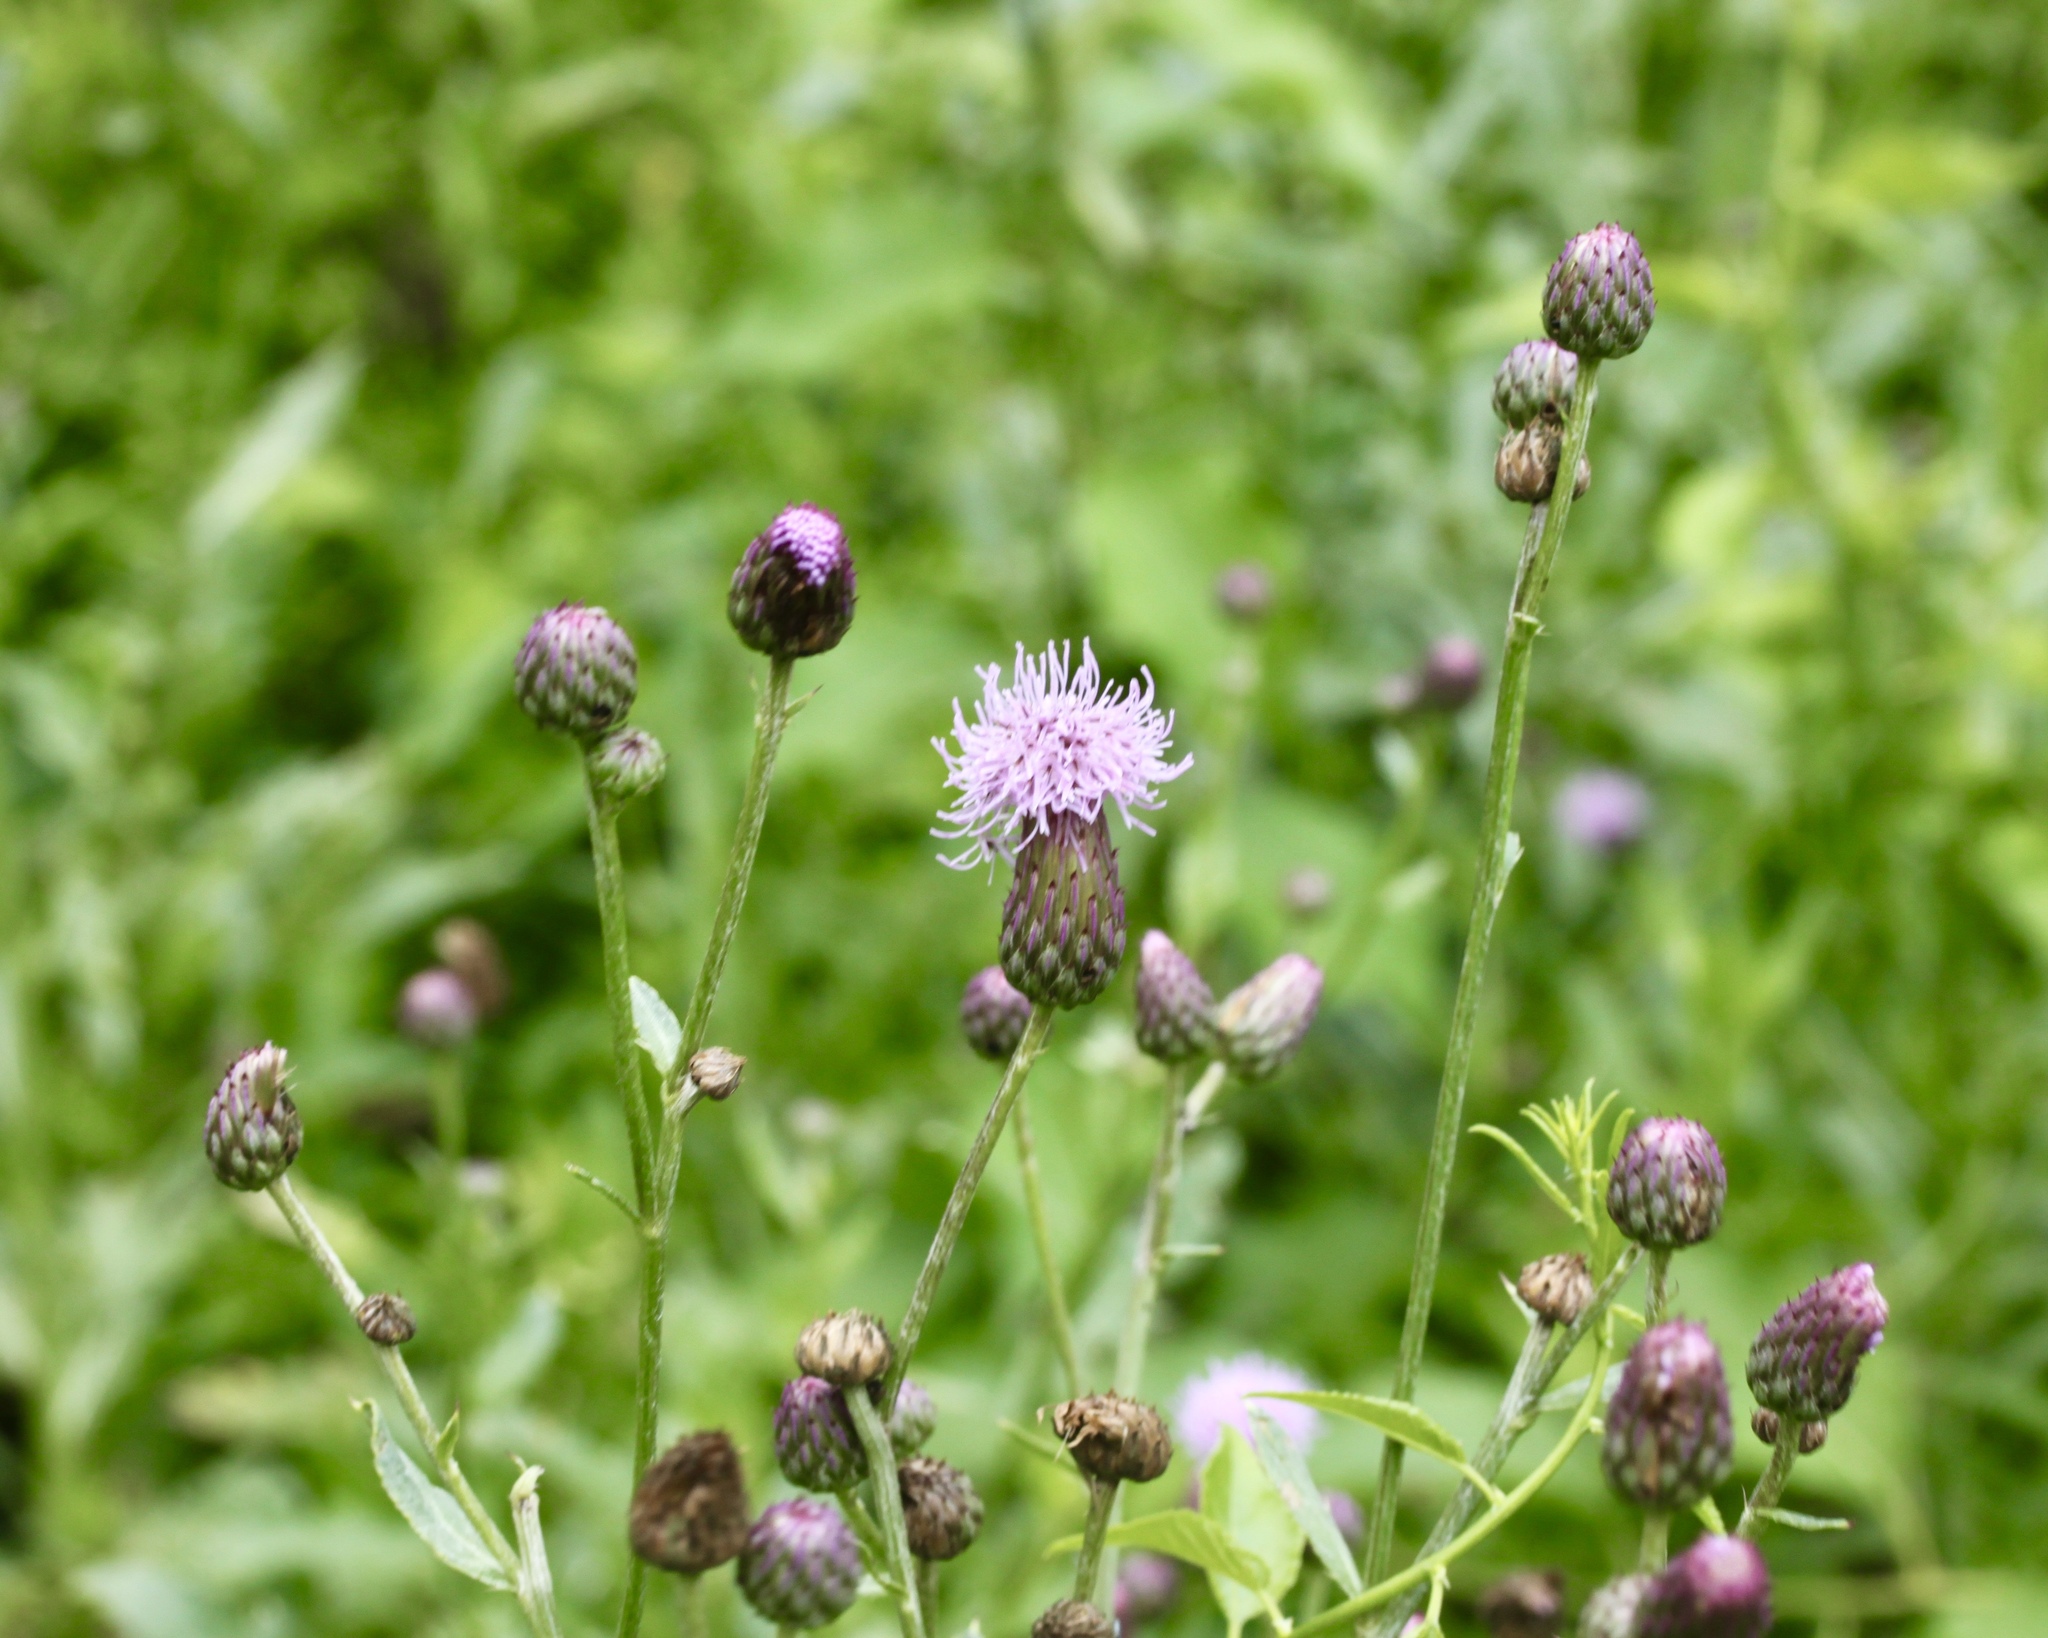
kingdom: Plantae
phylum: Tracheophyta
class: Magnoliopsida
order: Asterales
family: Asteraceae
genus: Cirsium
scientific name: Cirsium arvense
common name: Creeping thistle
